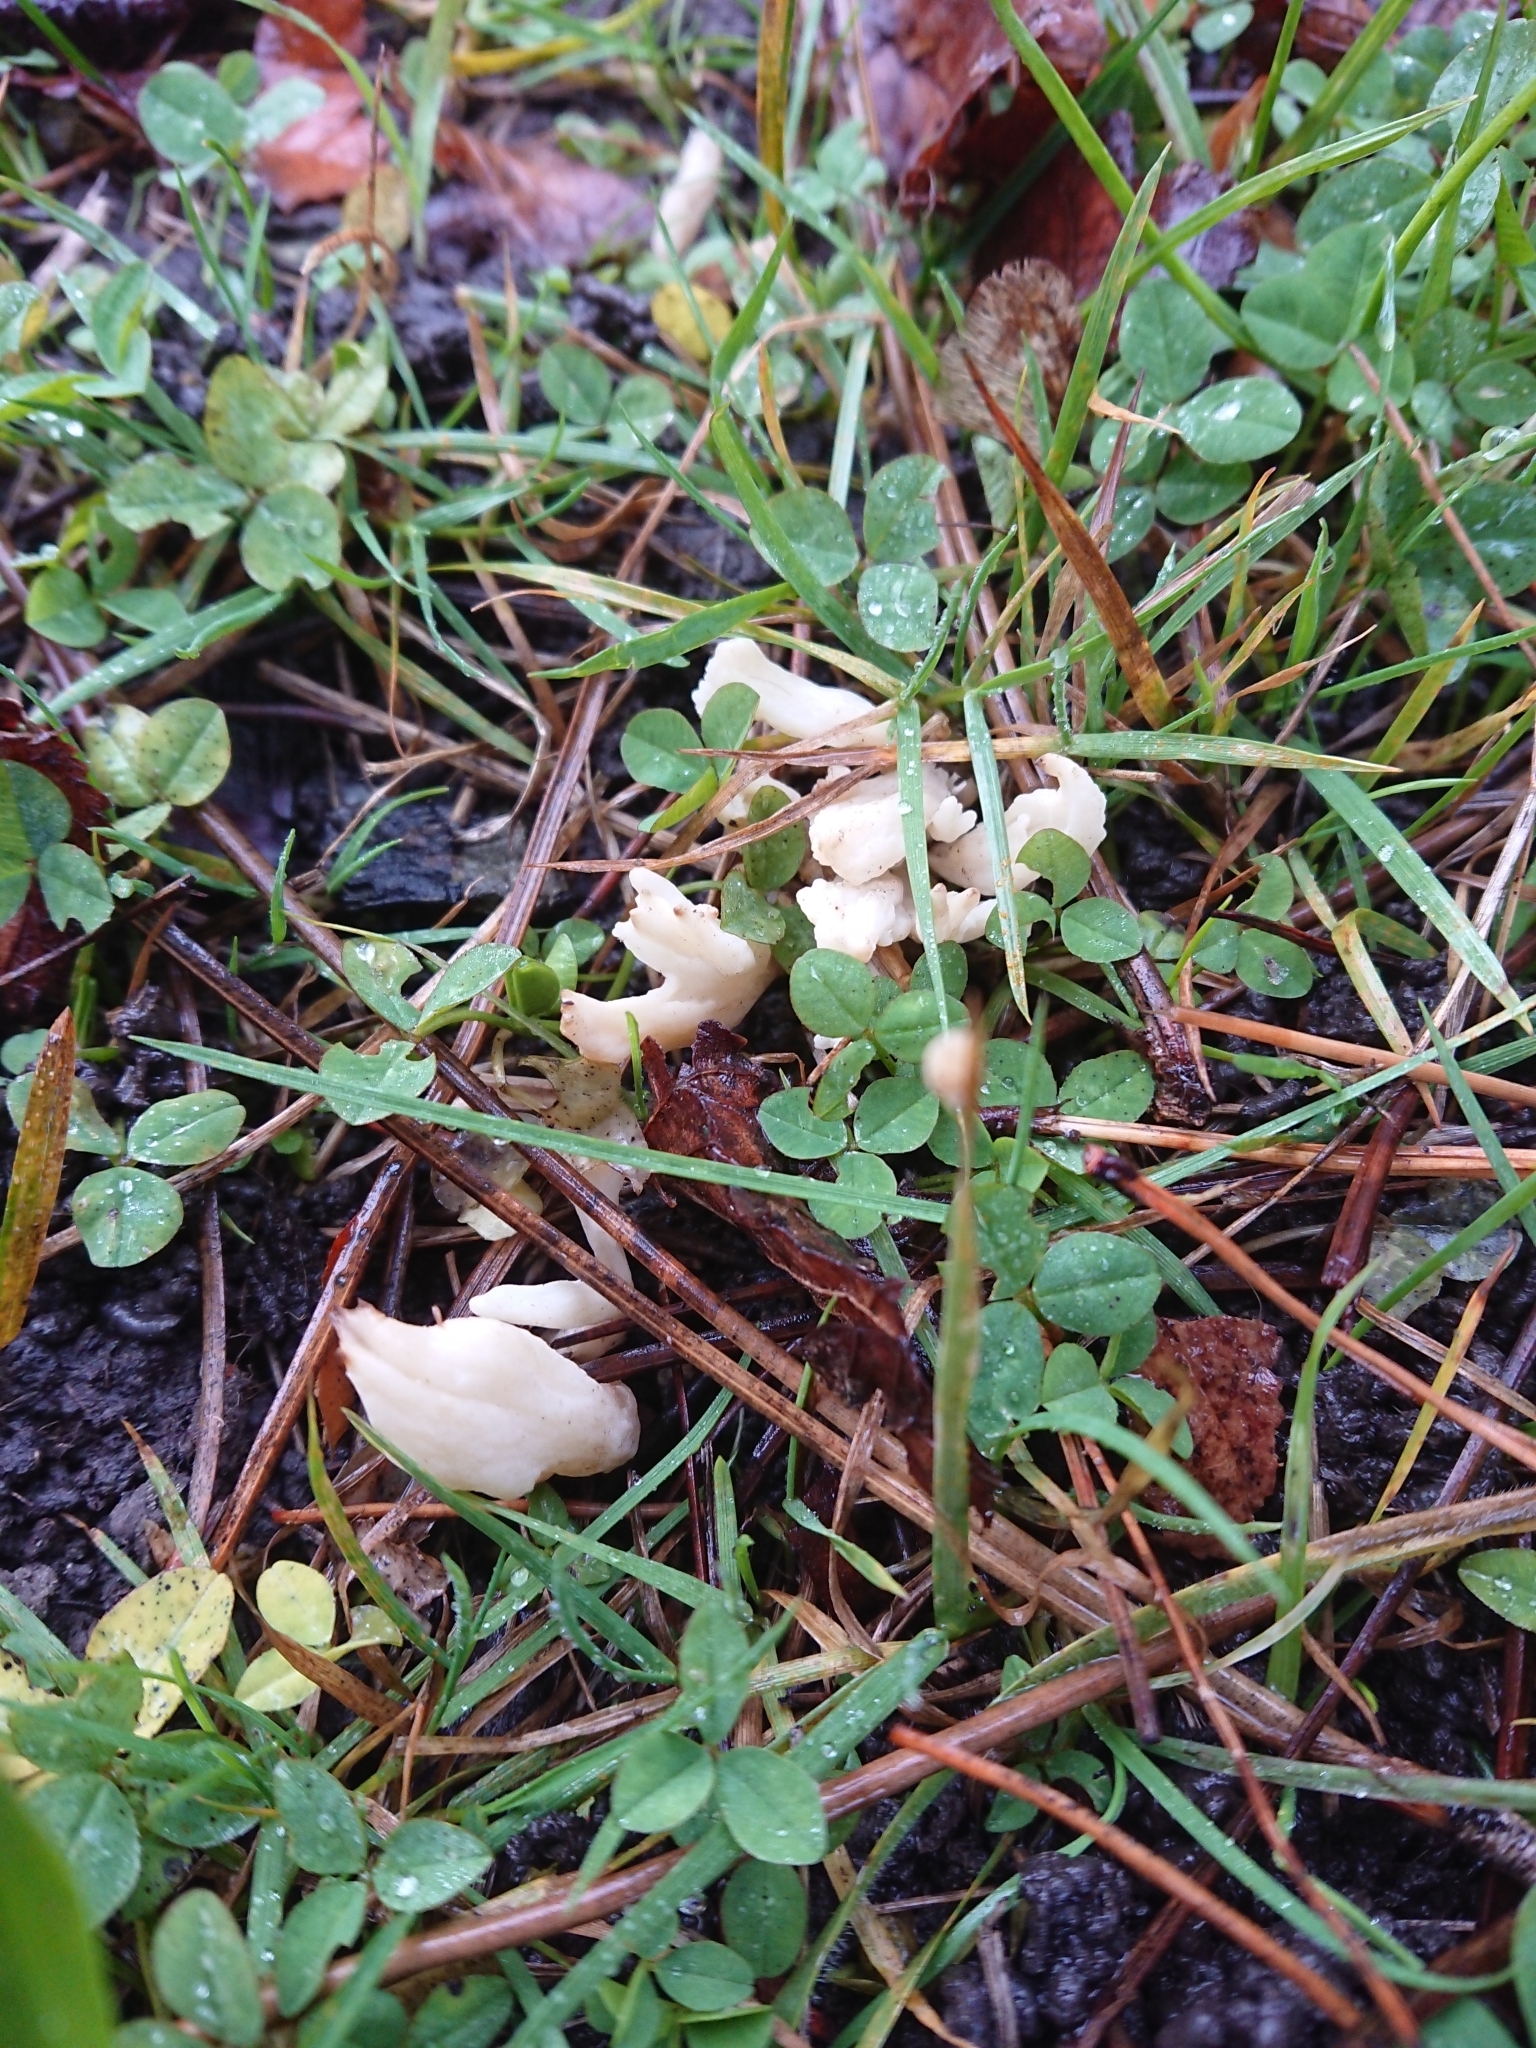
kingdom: Fungi
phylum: Basidiomycota
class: Agaricomycetes
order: Cantharellales
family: Hydnaceae
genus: Clavulina
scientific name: Clavulina rugosa
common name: Wrinkled club
